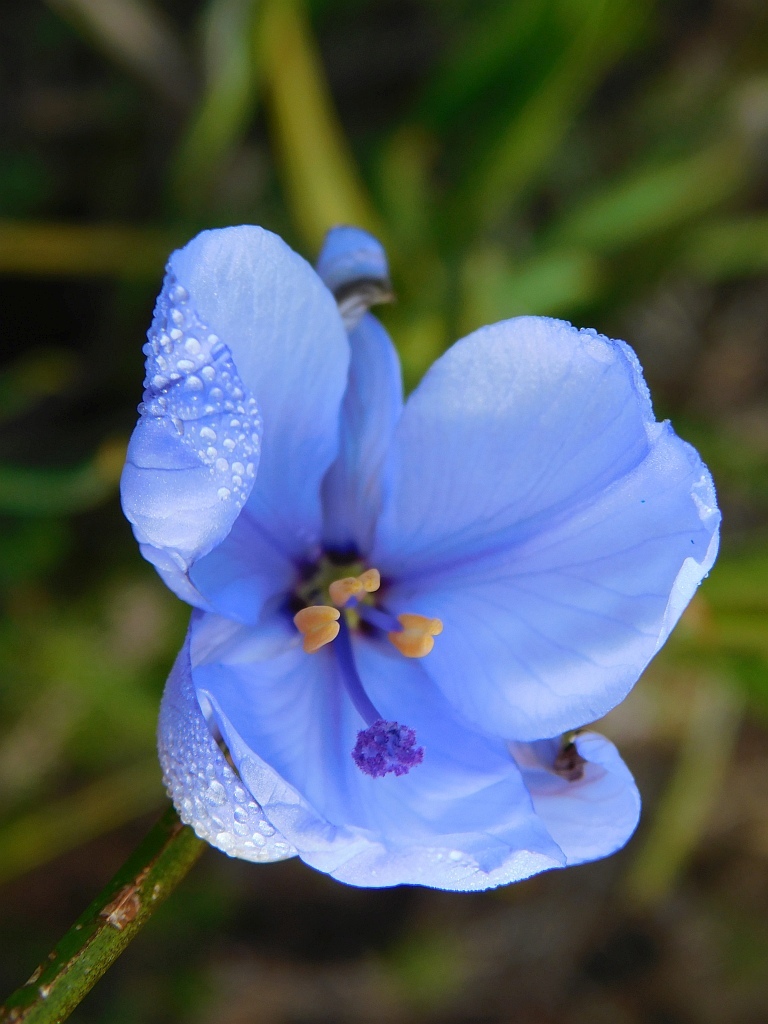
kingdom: Plantae
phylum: Tracheophyta
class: Liliopsida
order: Asparagales
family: Iridaceae
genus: Aristea
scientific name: Aristea spiralis
